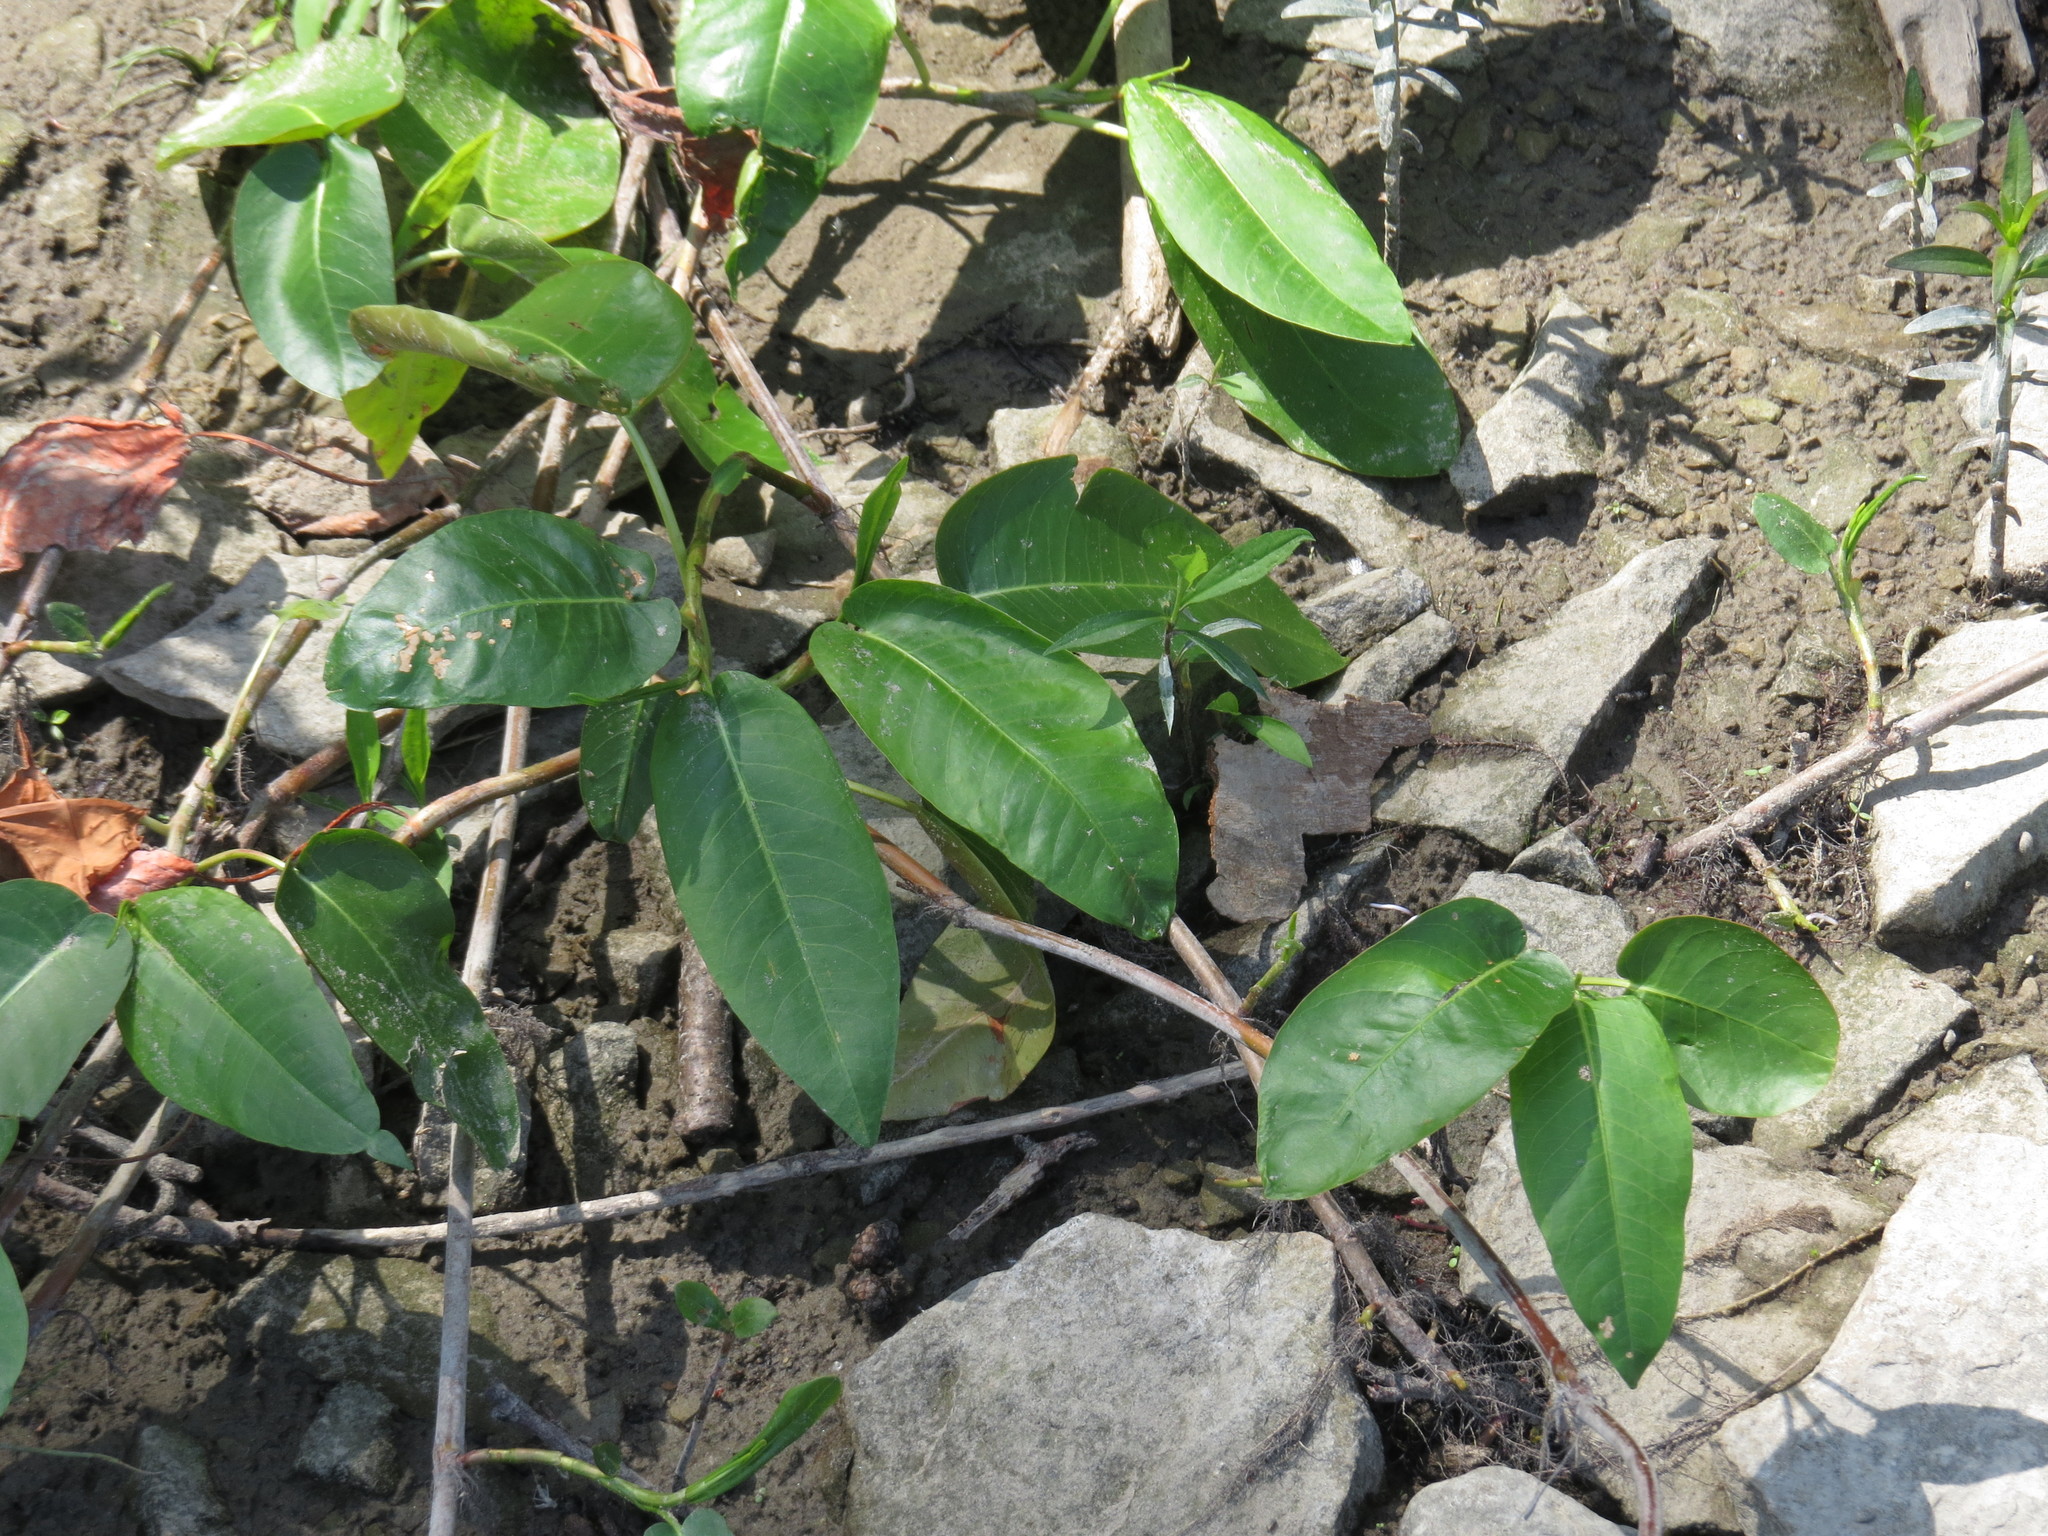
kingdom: Plantae
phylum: Tracheophyta
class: Magnoliopsida
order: Caryophyllales
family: Polygonaceae
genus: Persicaria
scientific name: Persicaria amphibia
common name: Amphibious bistort
